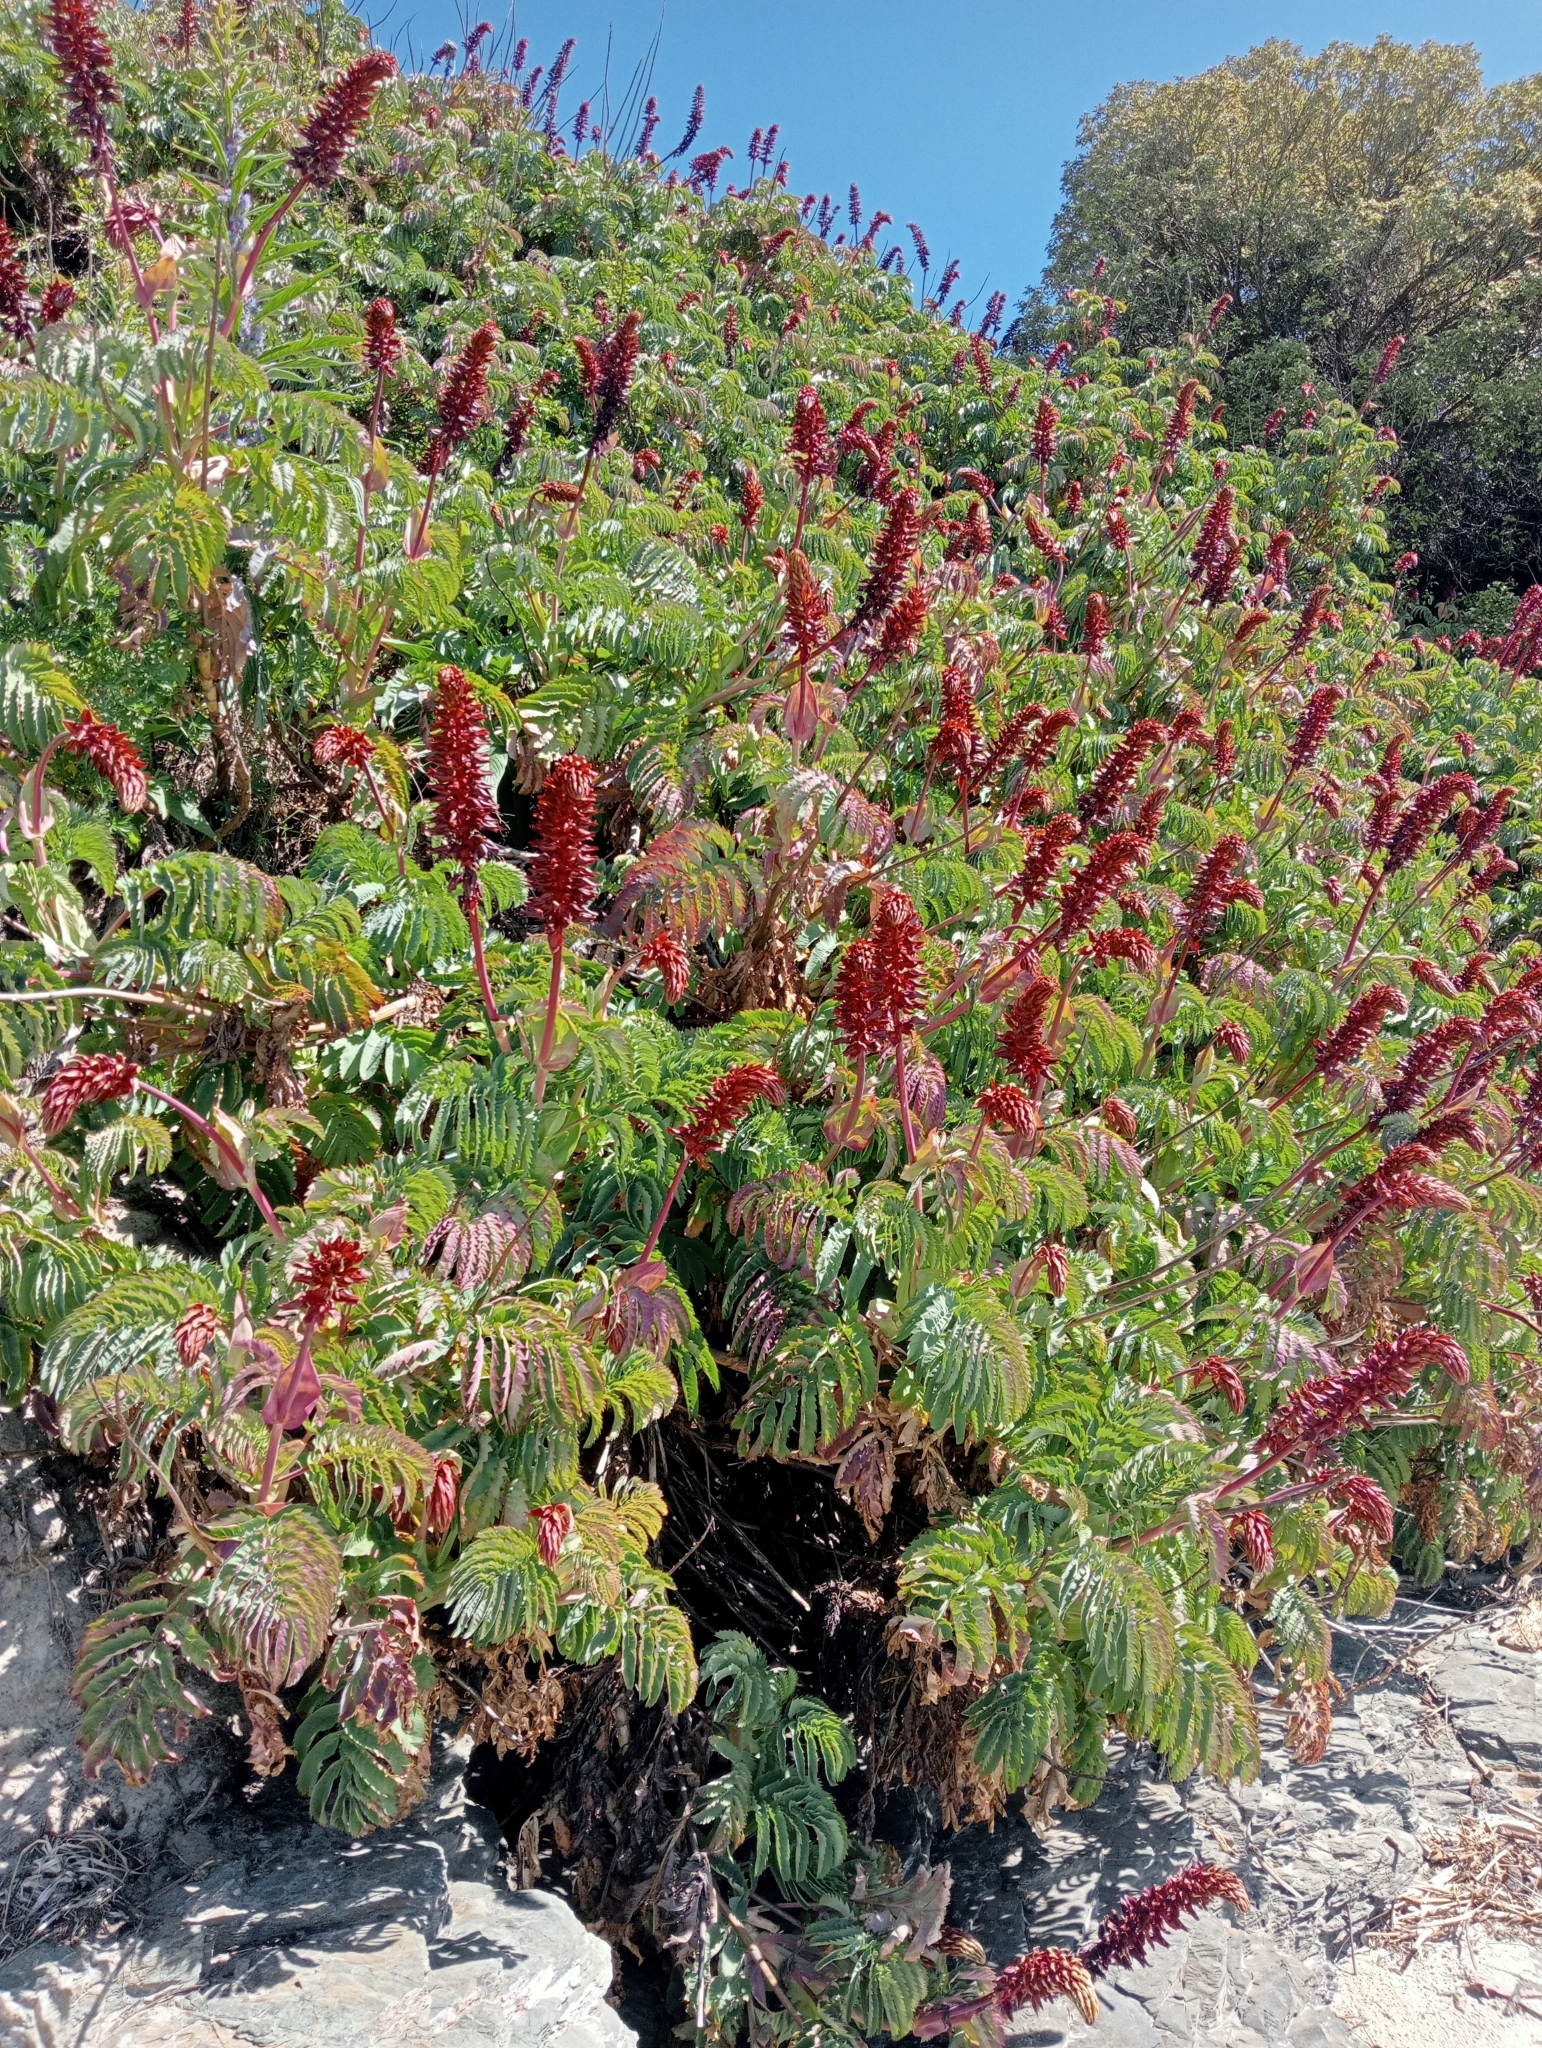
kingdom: Plantae
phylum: Tracheophyta
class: Magnoliopsida
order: Geraniales
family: Melianthaceae
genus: Melianthus
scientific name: Melianthus major
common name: Honey-flower
